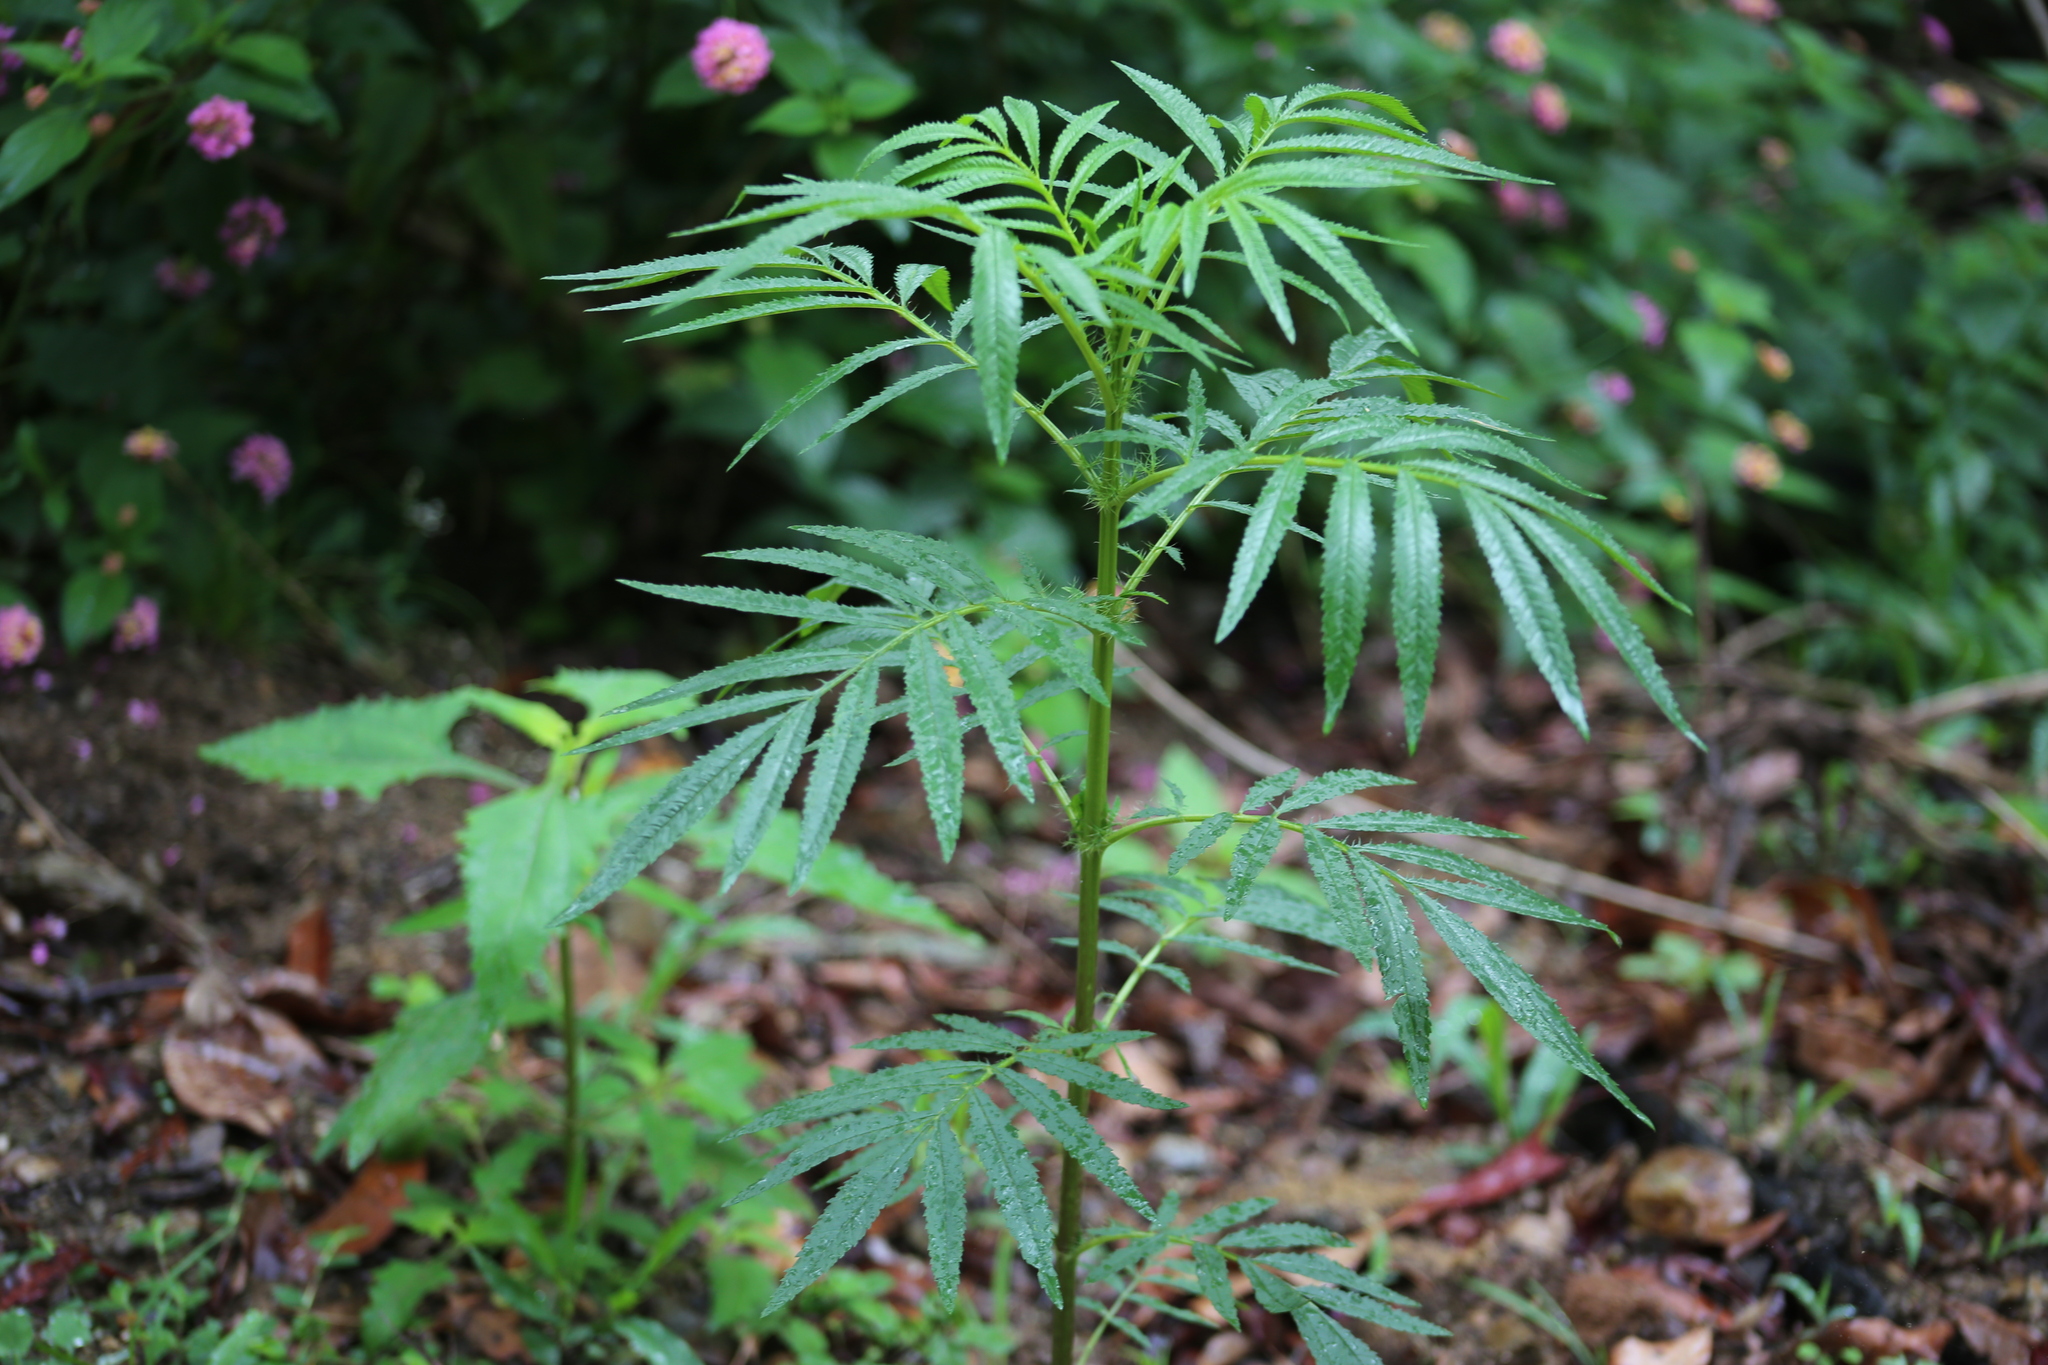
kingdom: Plantae
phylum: Tracheophyta
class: Magnoliopsida
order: Asterales
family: Asteraceae
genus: Tagetes
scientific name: Tagetes minuta
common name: Muster john henry
